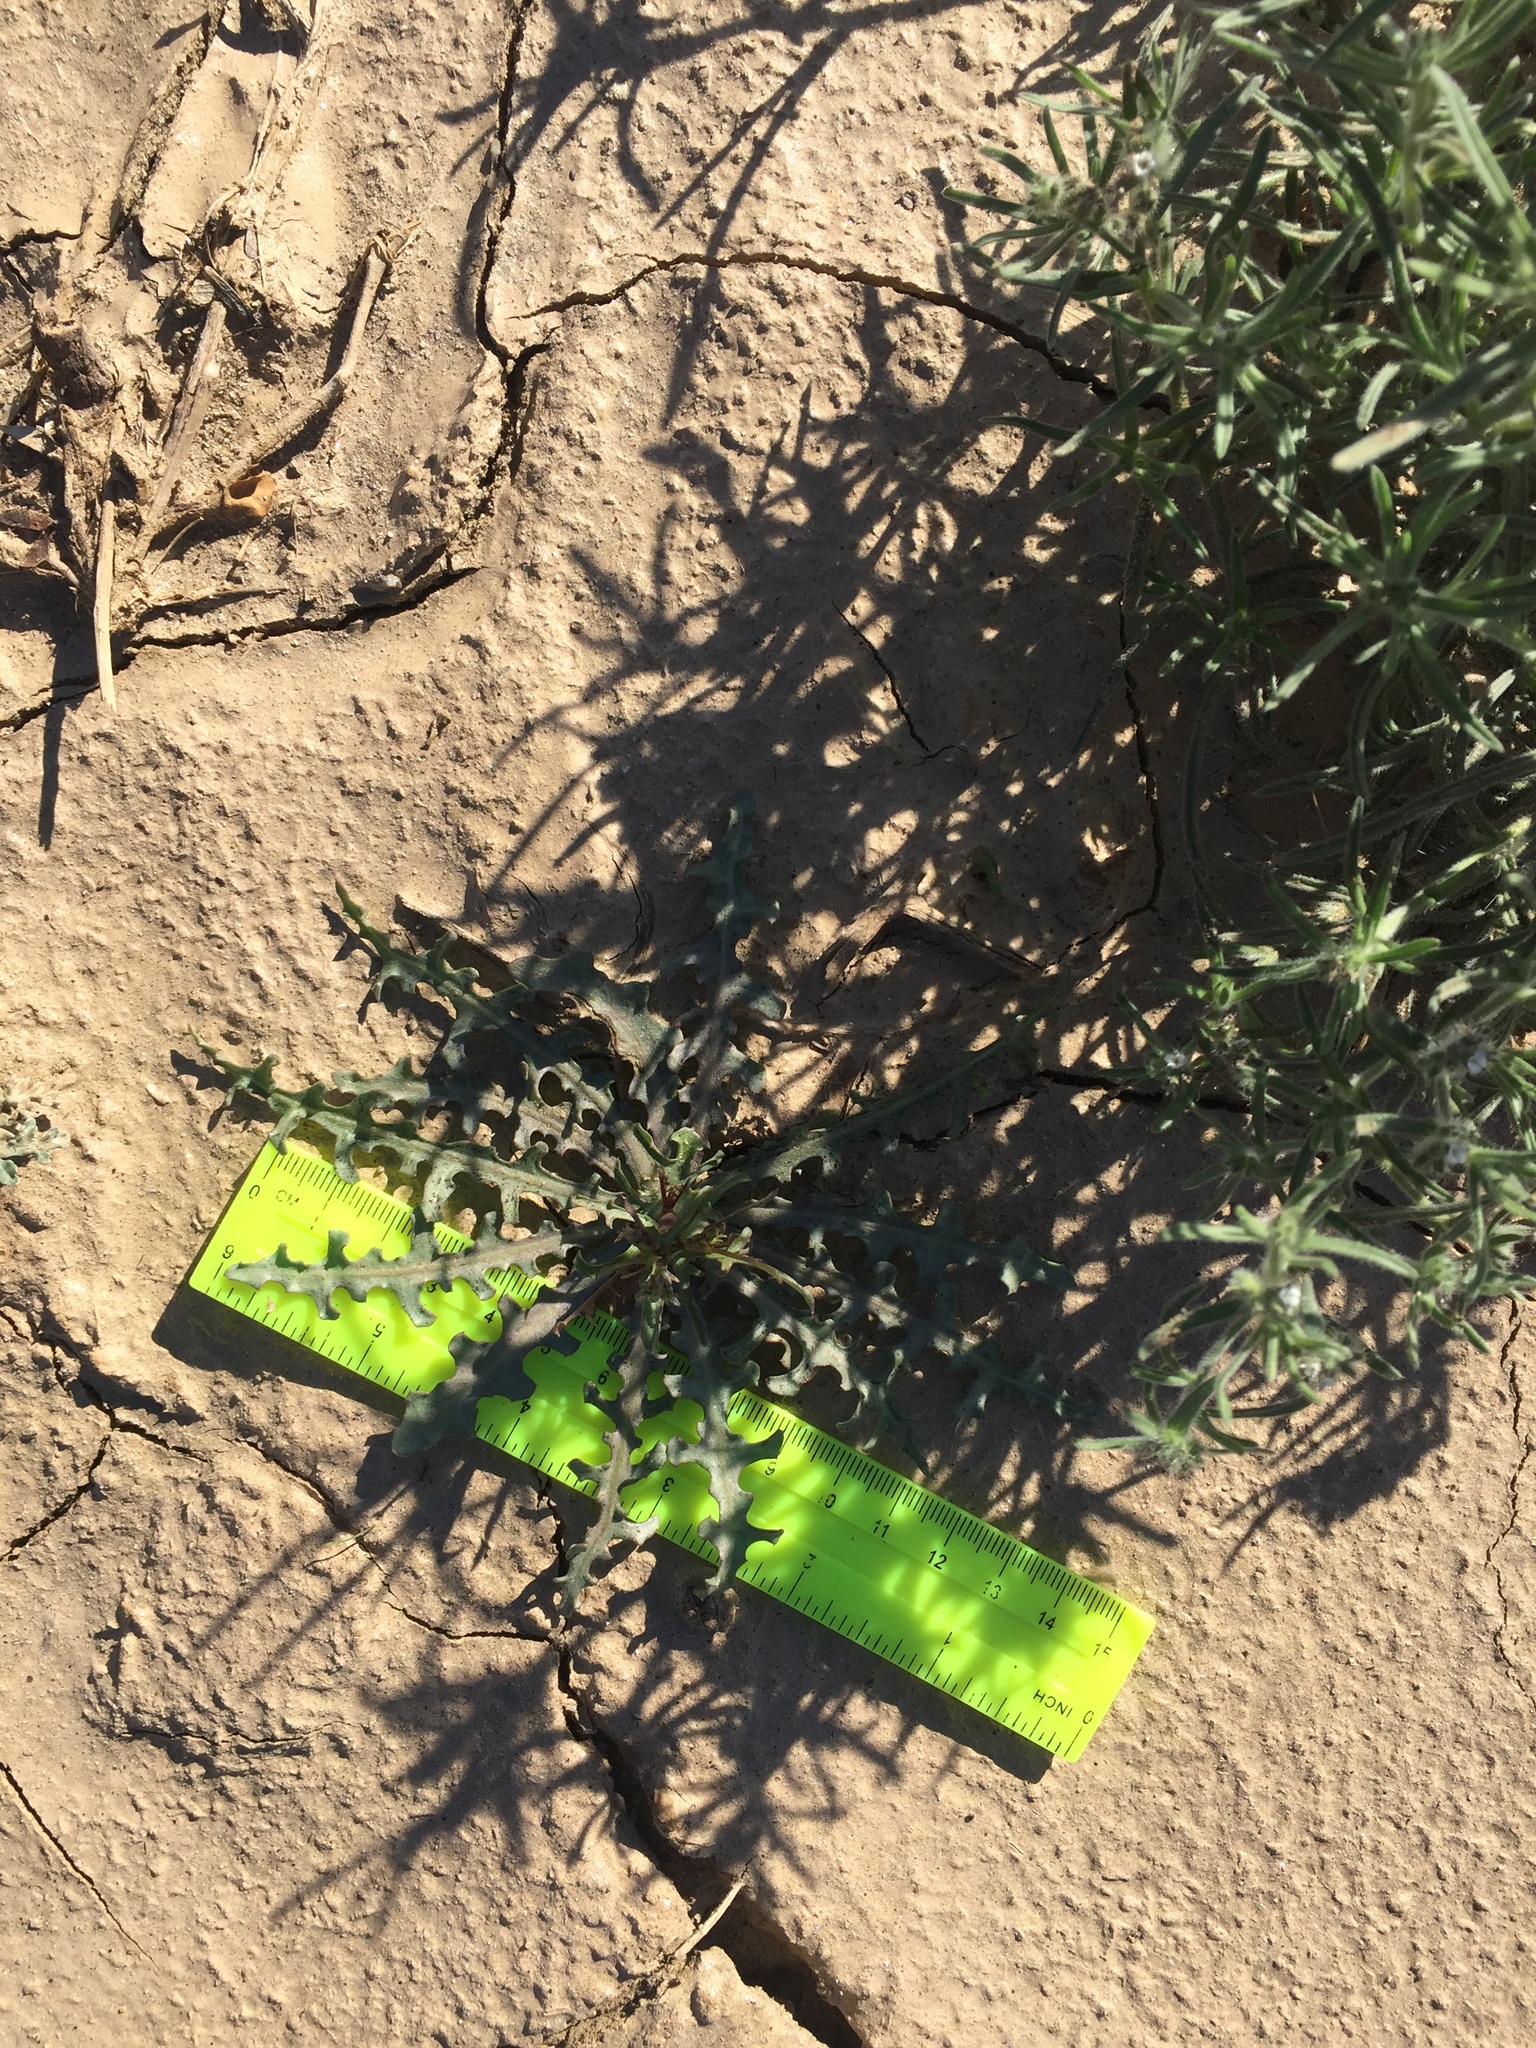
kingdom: Plantae
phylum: Tracheophyta
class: Magnoliopsida
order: Asterales
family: Asteraceae
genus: Rafinesquia
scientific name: Rafinesquia neomexicana
